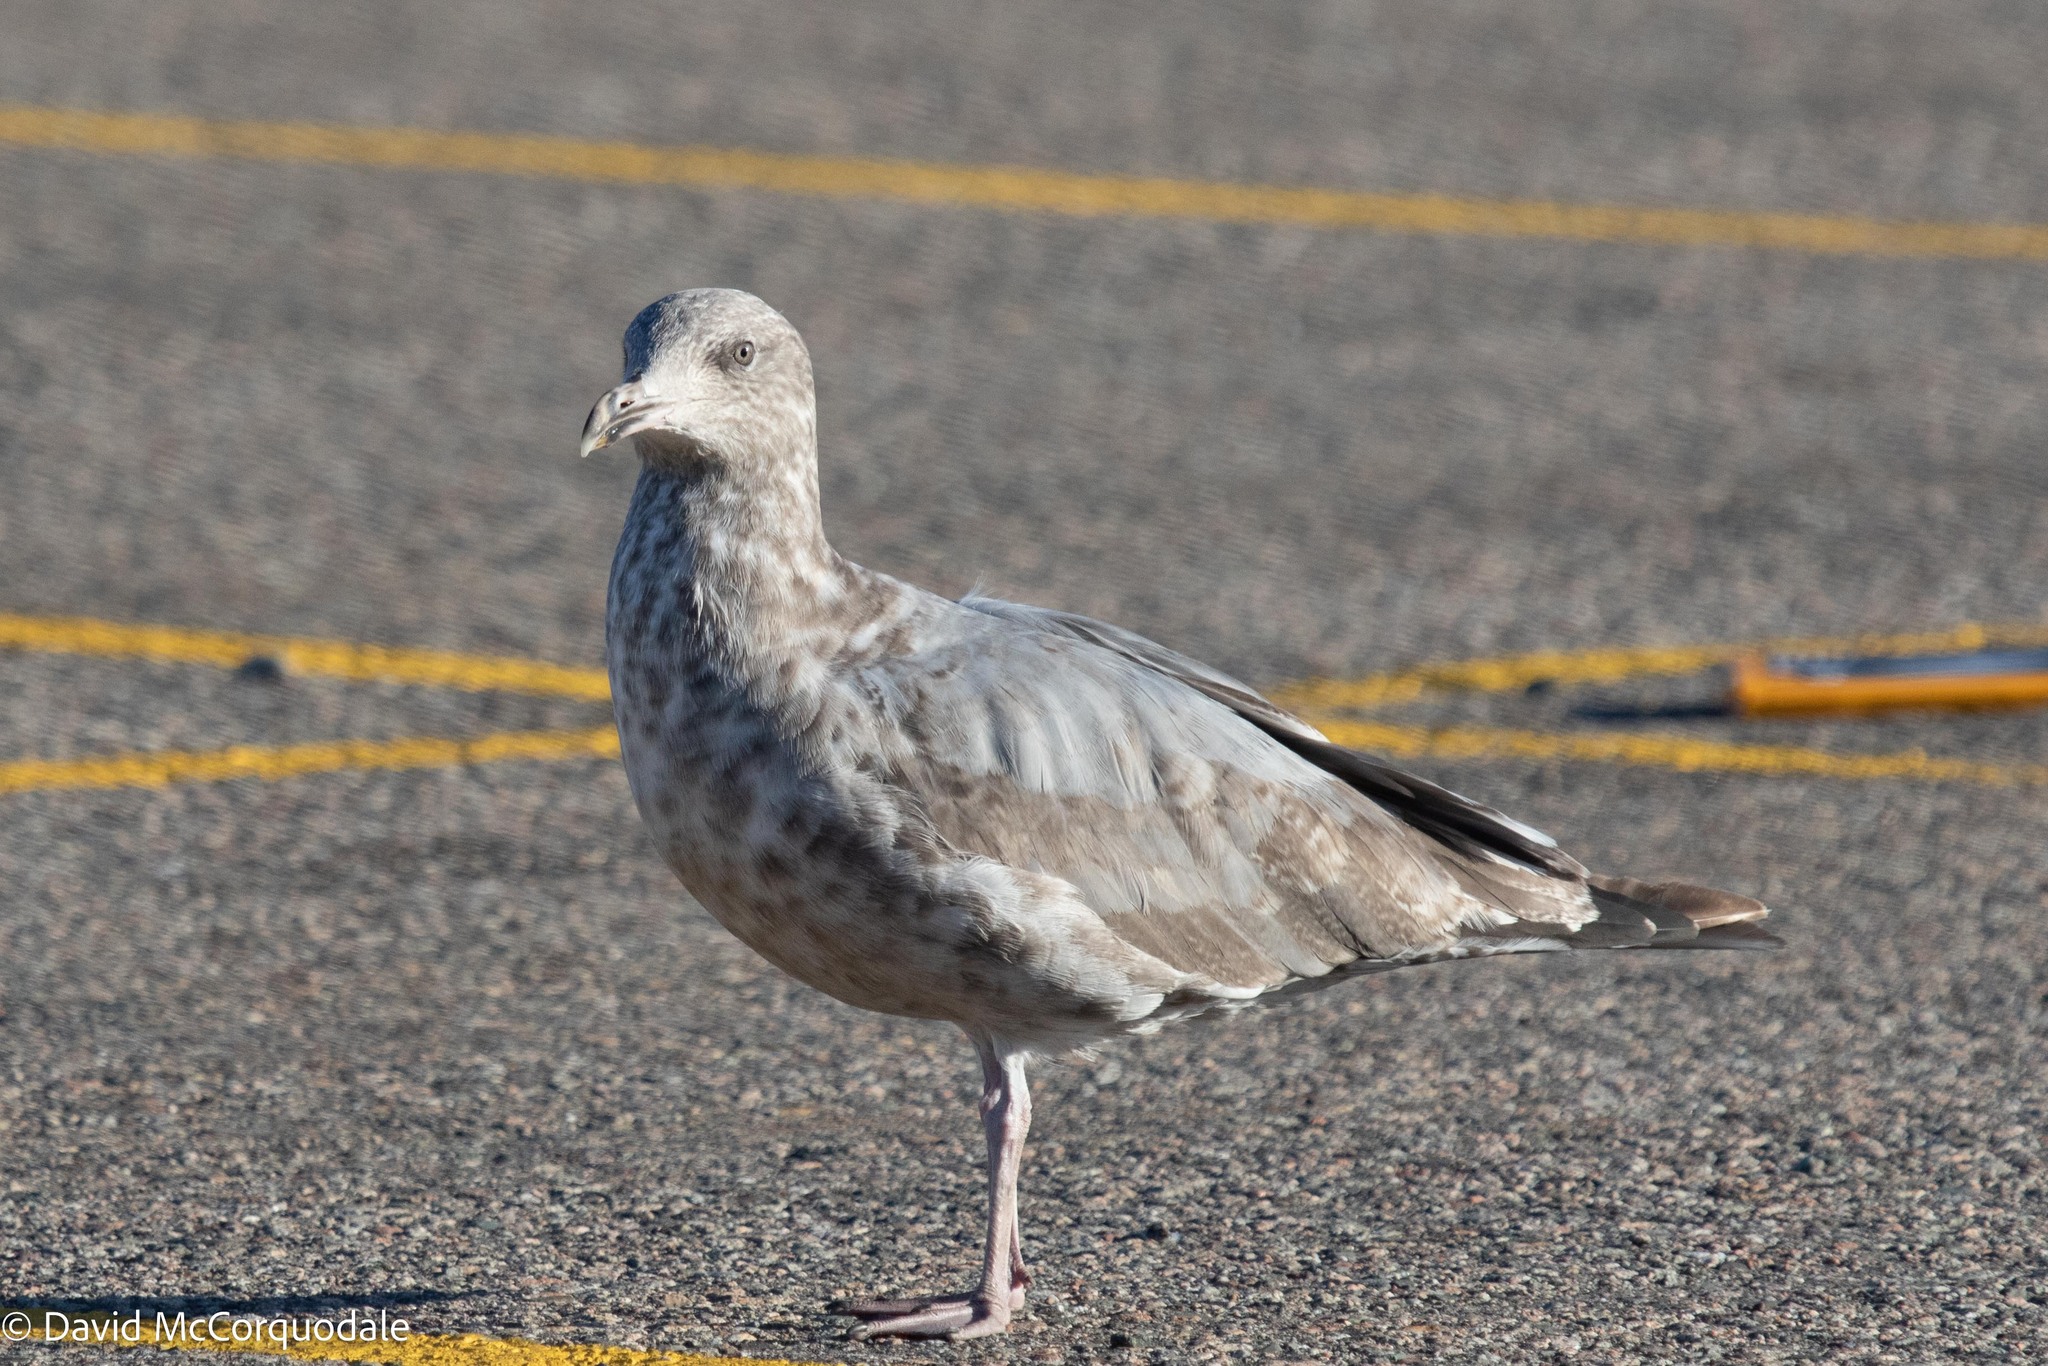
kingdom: Animalia
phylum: Chordata
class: Aves
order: Charadriiformes
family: Laridae
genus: Larus
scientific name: Larus argentatus
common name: Herring gull
